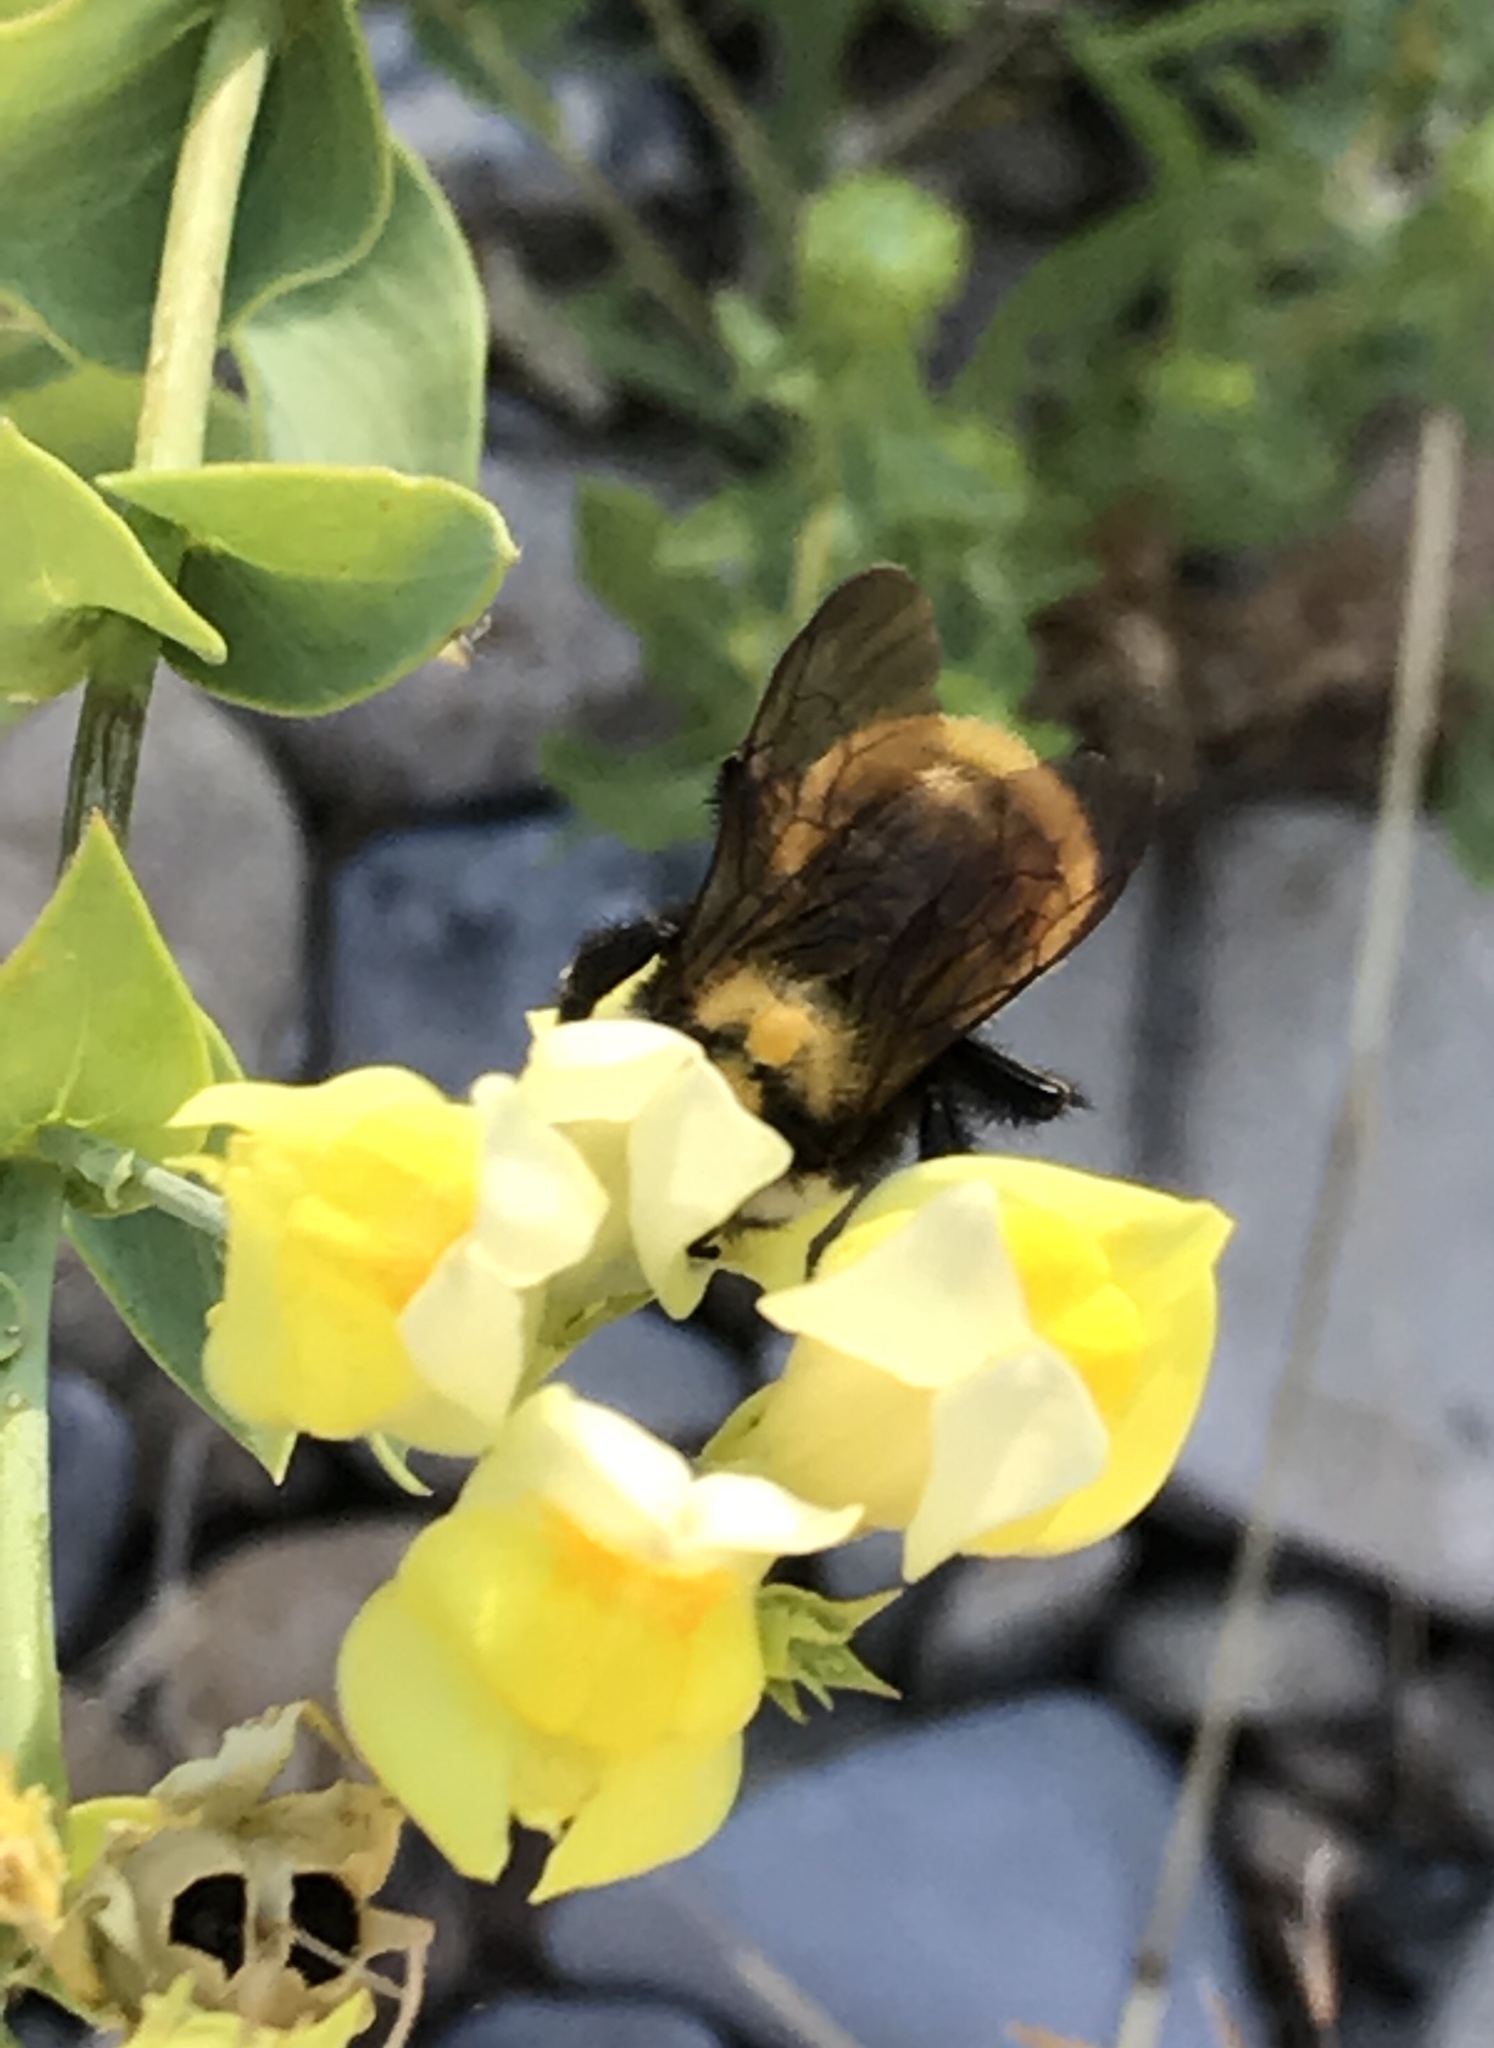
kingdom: Animalia
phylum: Arthropoda
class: Insecta
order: Hymenoptera
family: Apidae
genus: Bombus
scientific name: Bombus appositus
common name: White-shouldered bumble bee
